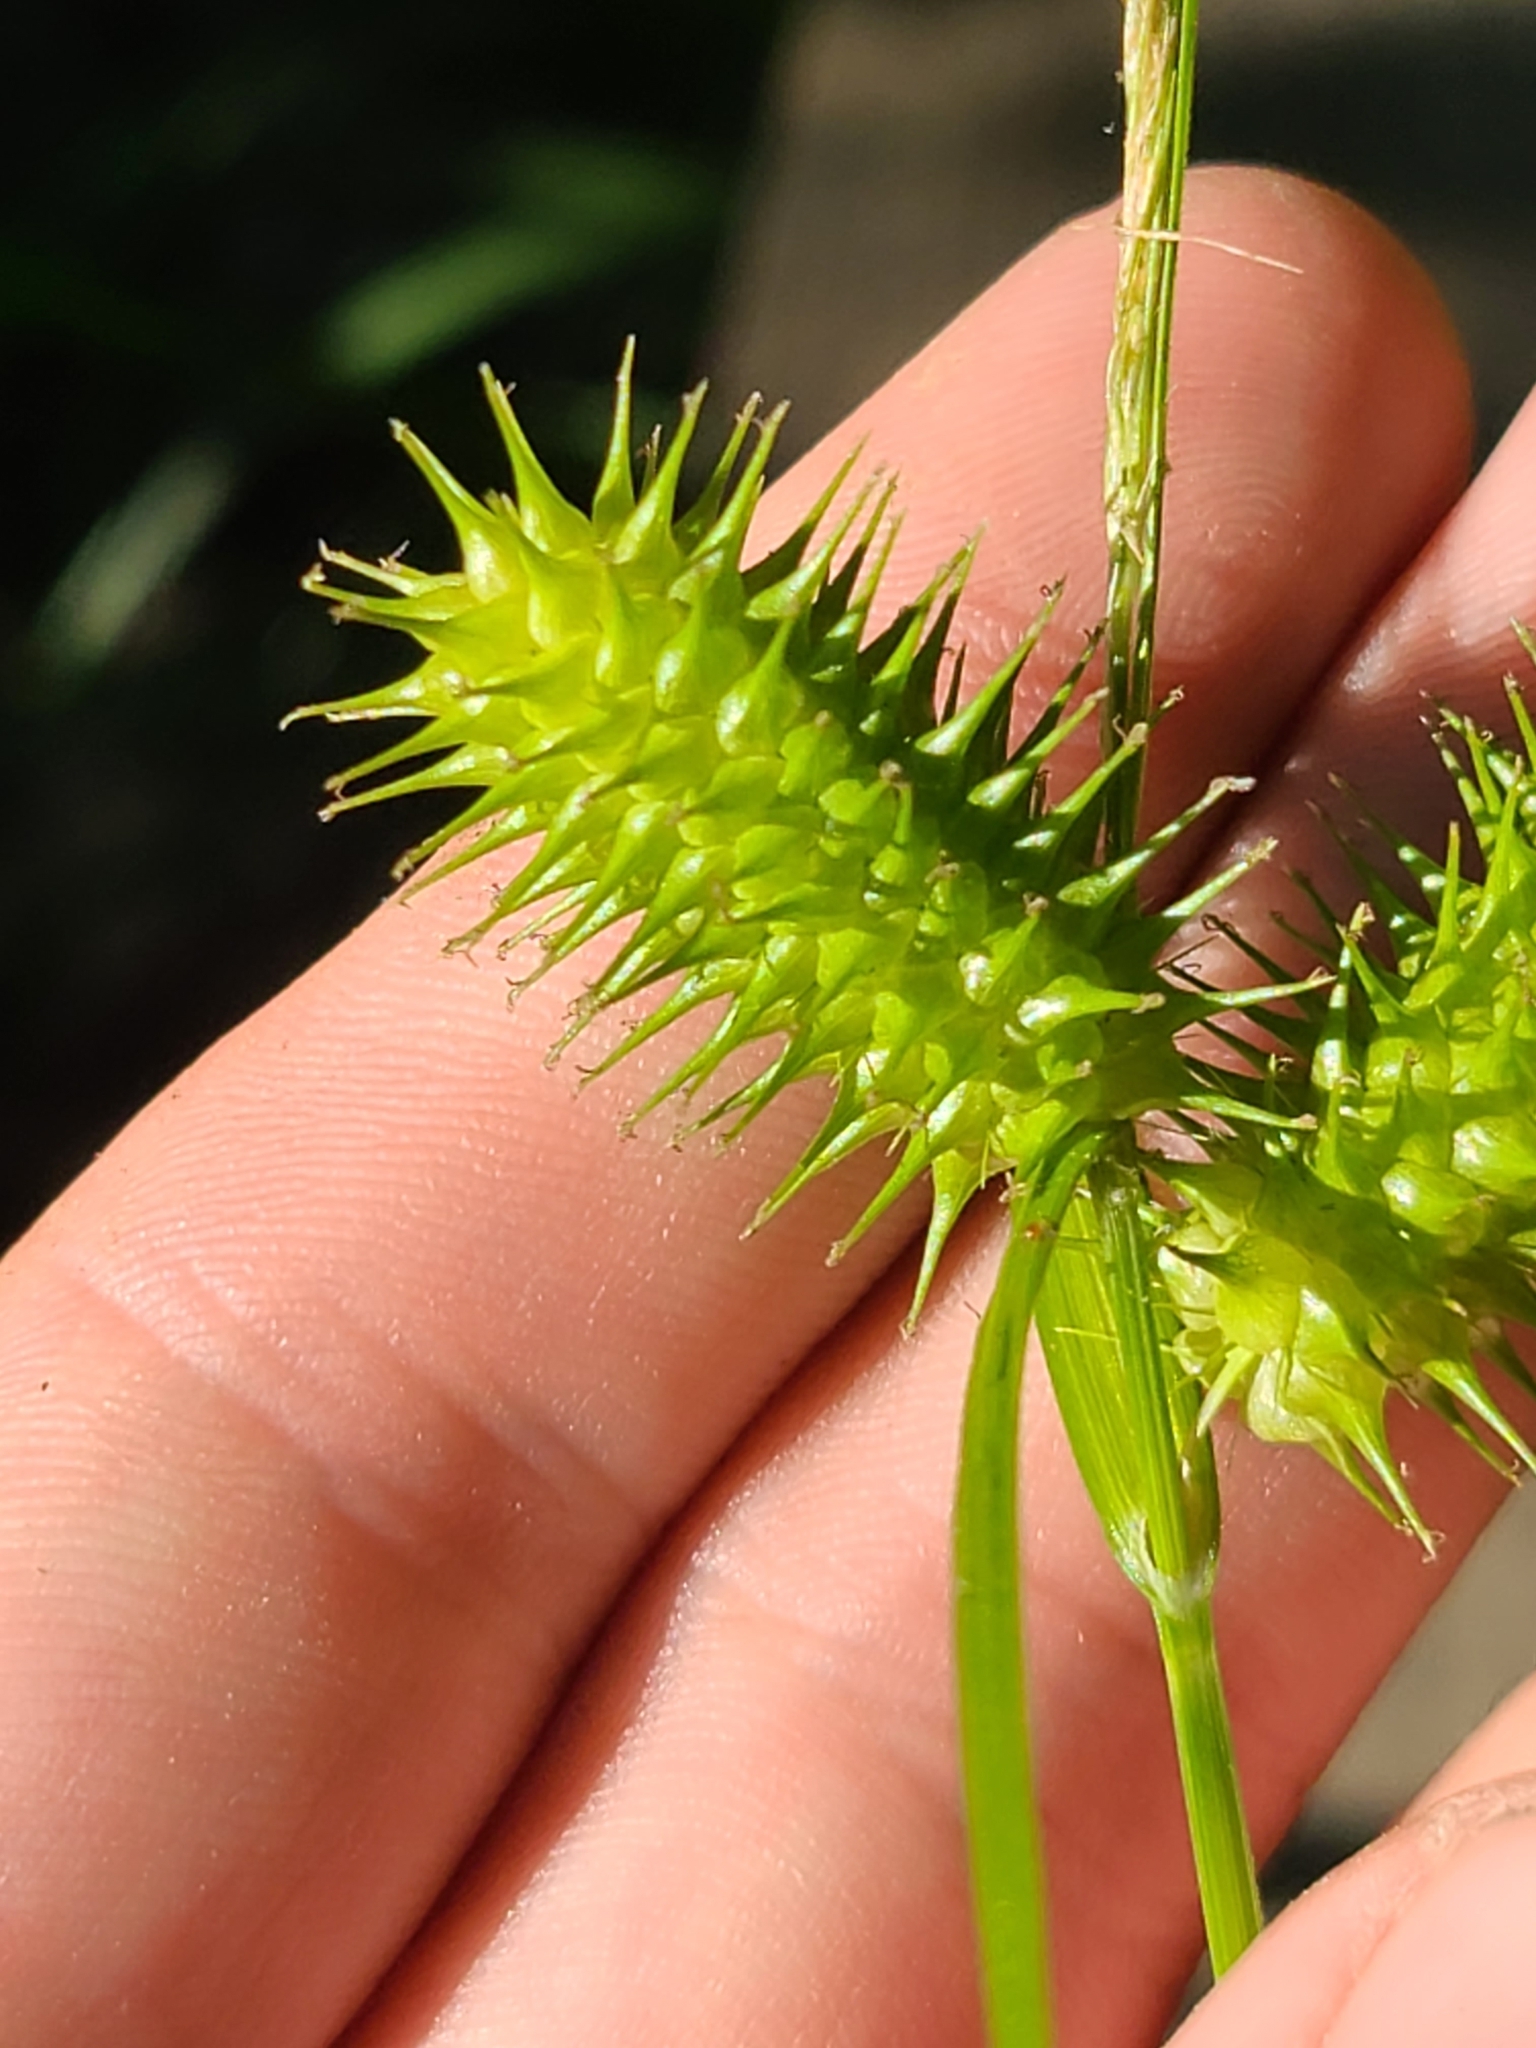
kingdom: Plantae
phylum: Tracheophyta
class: Liliopsida
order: Poales
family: Cyperaceae
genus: Carex
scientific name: Carex lurida
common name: Sallow sedge
